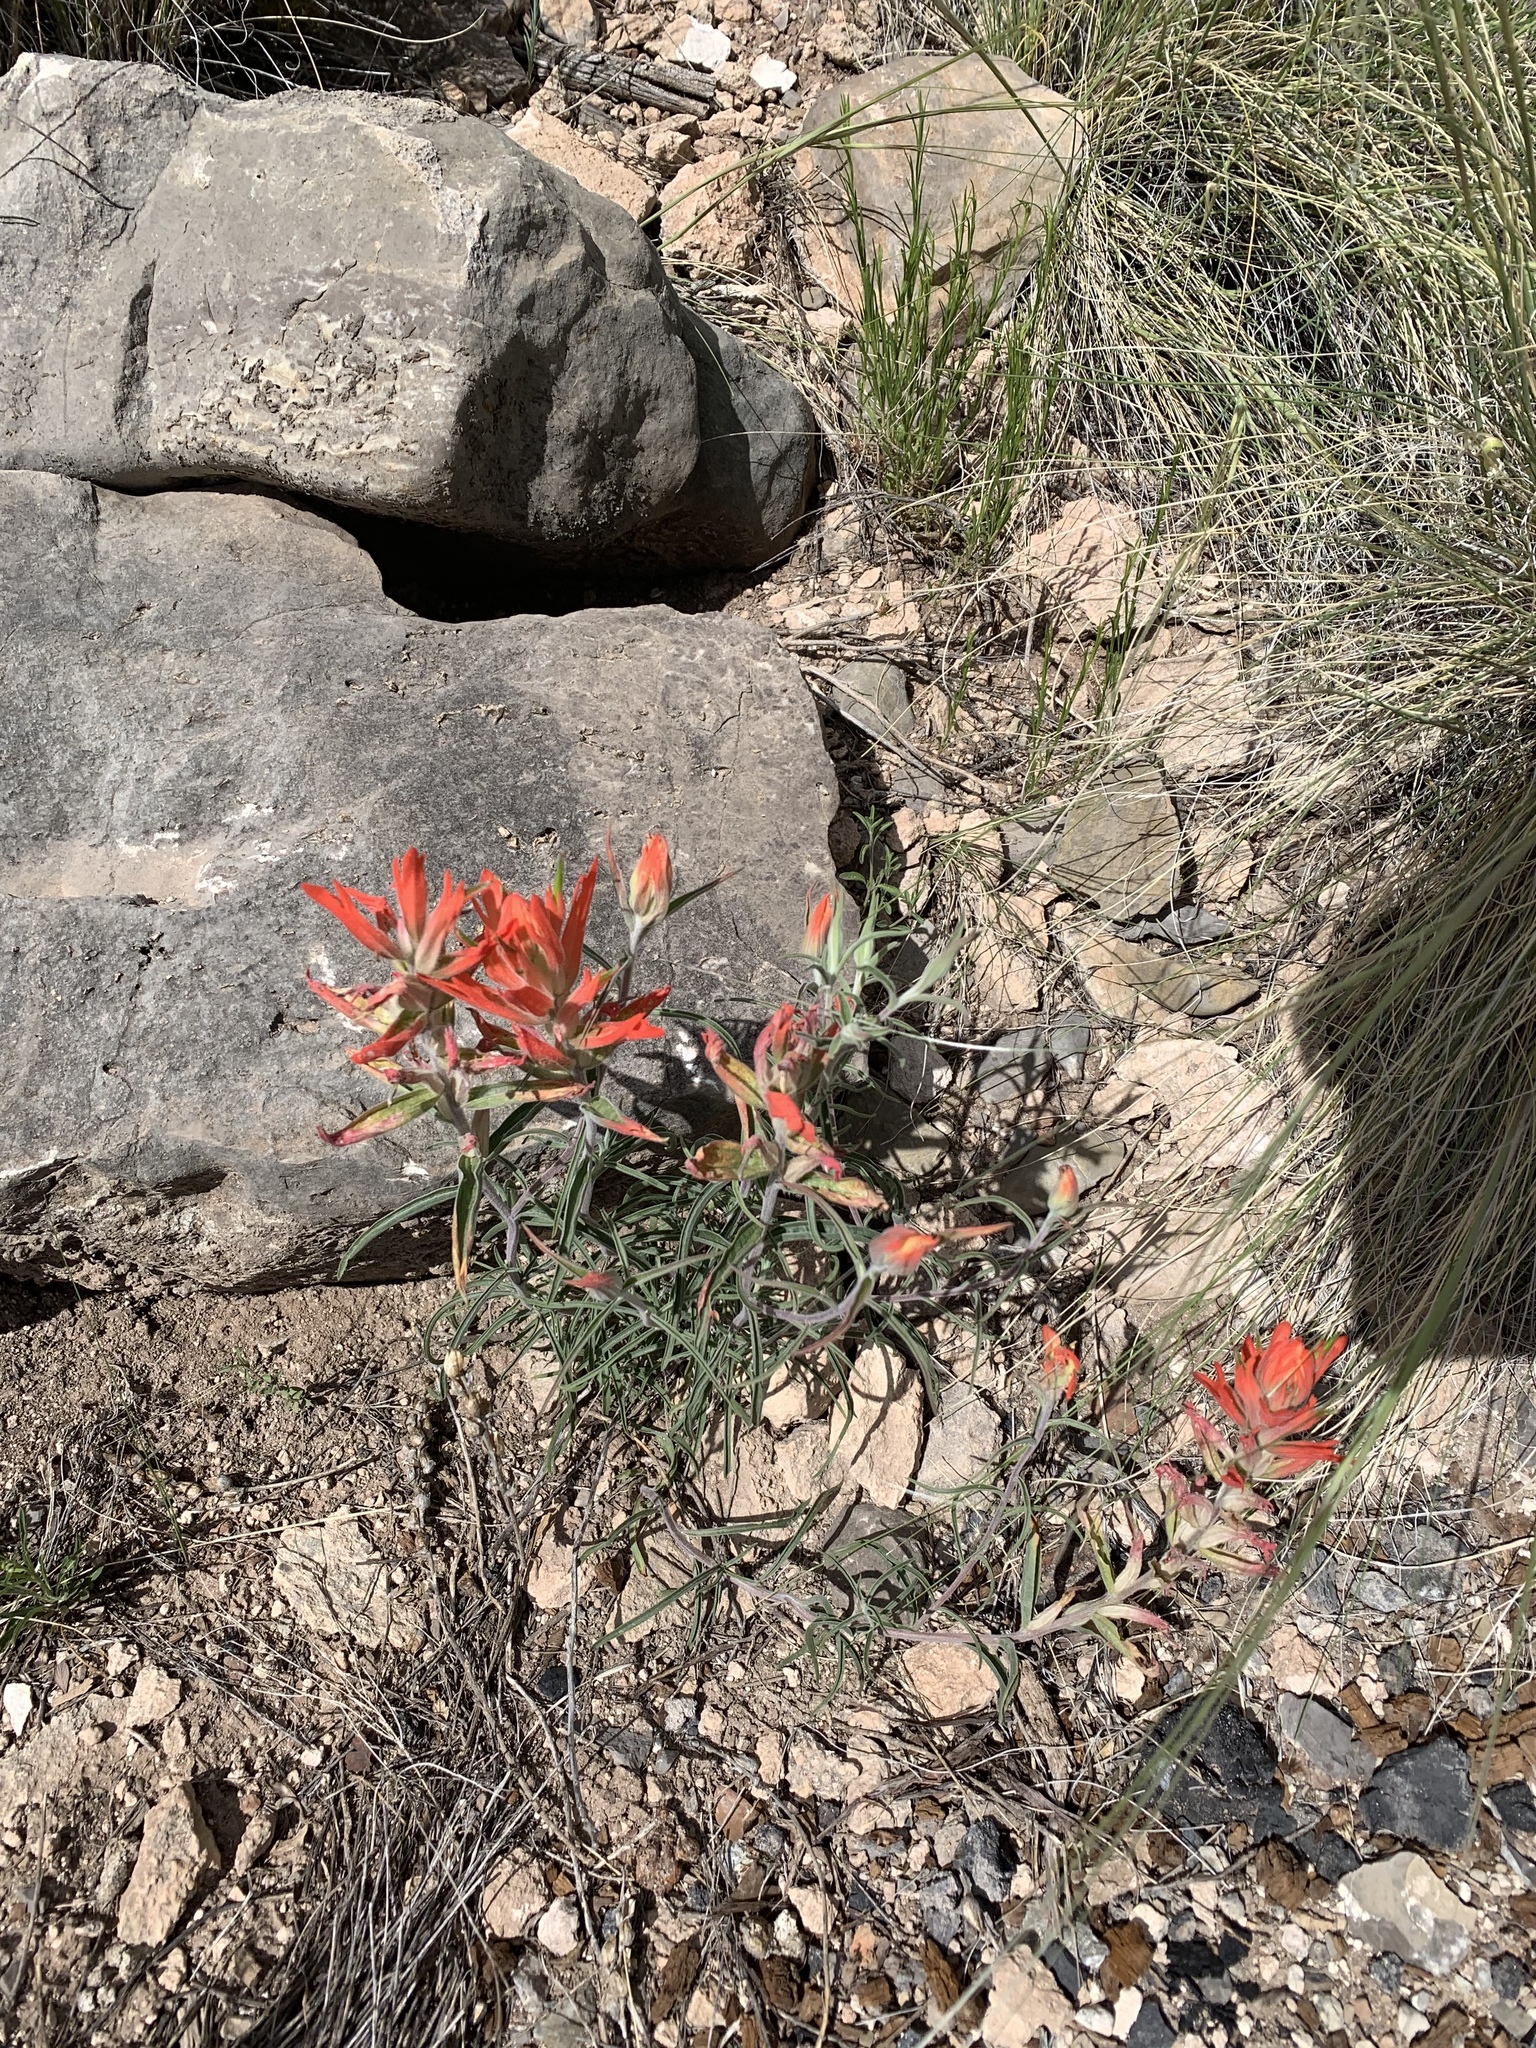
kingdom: Plantae
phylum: Tracheophyta
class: Magnoliopsida
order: Lamiales
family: Orobanchaceae
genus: Castilleja
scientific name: Castilleja integra
